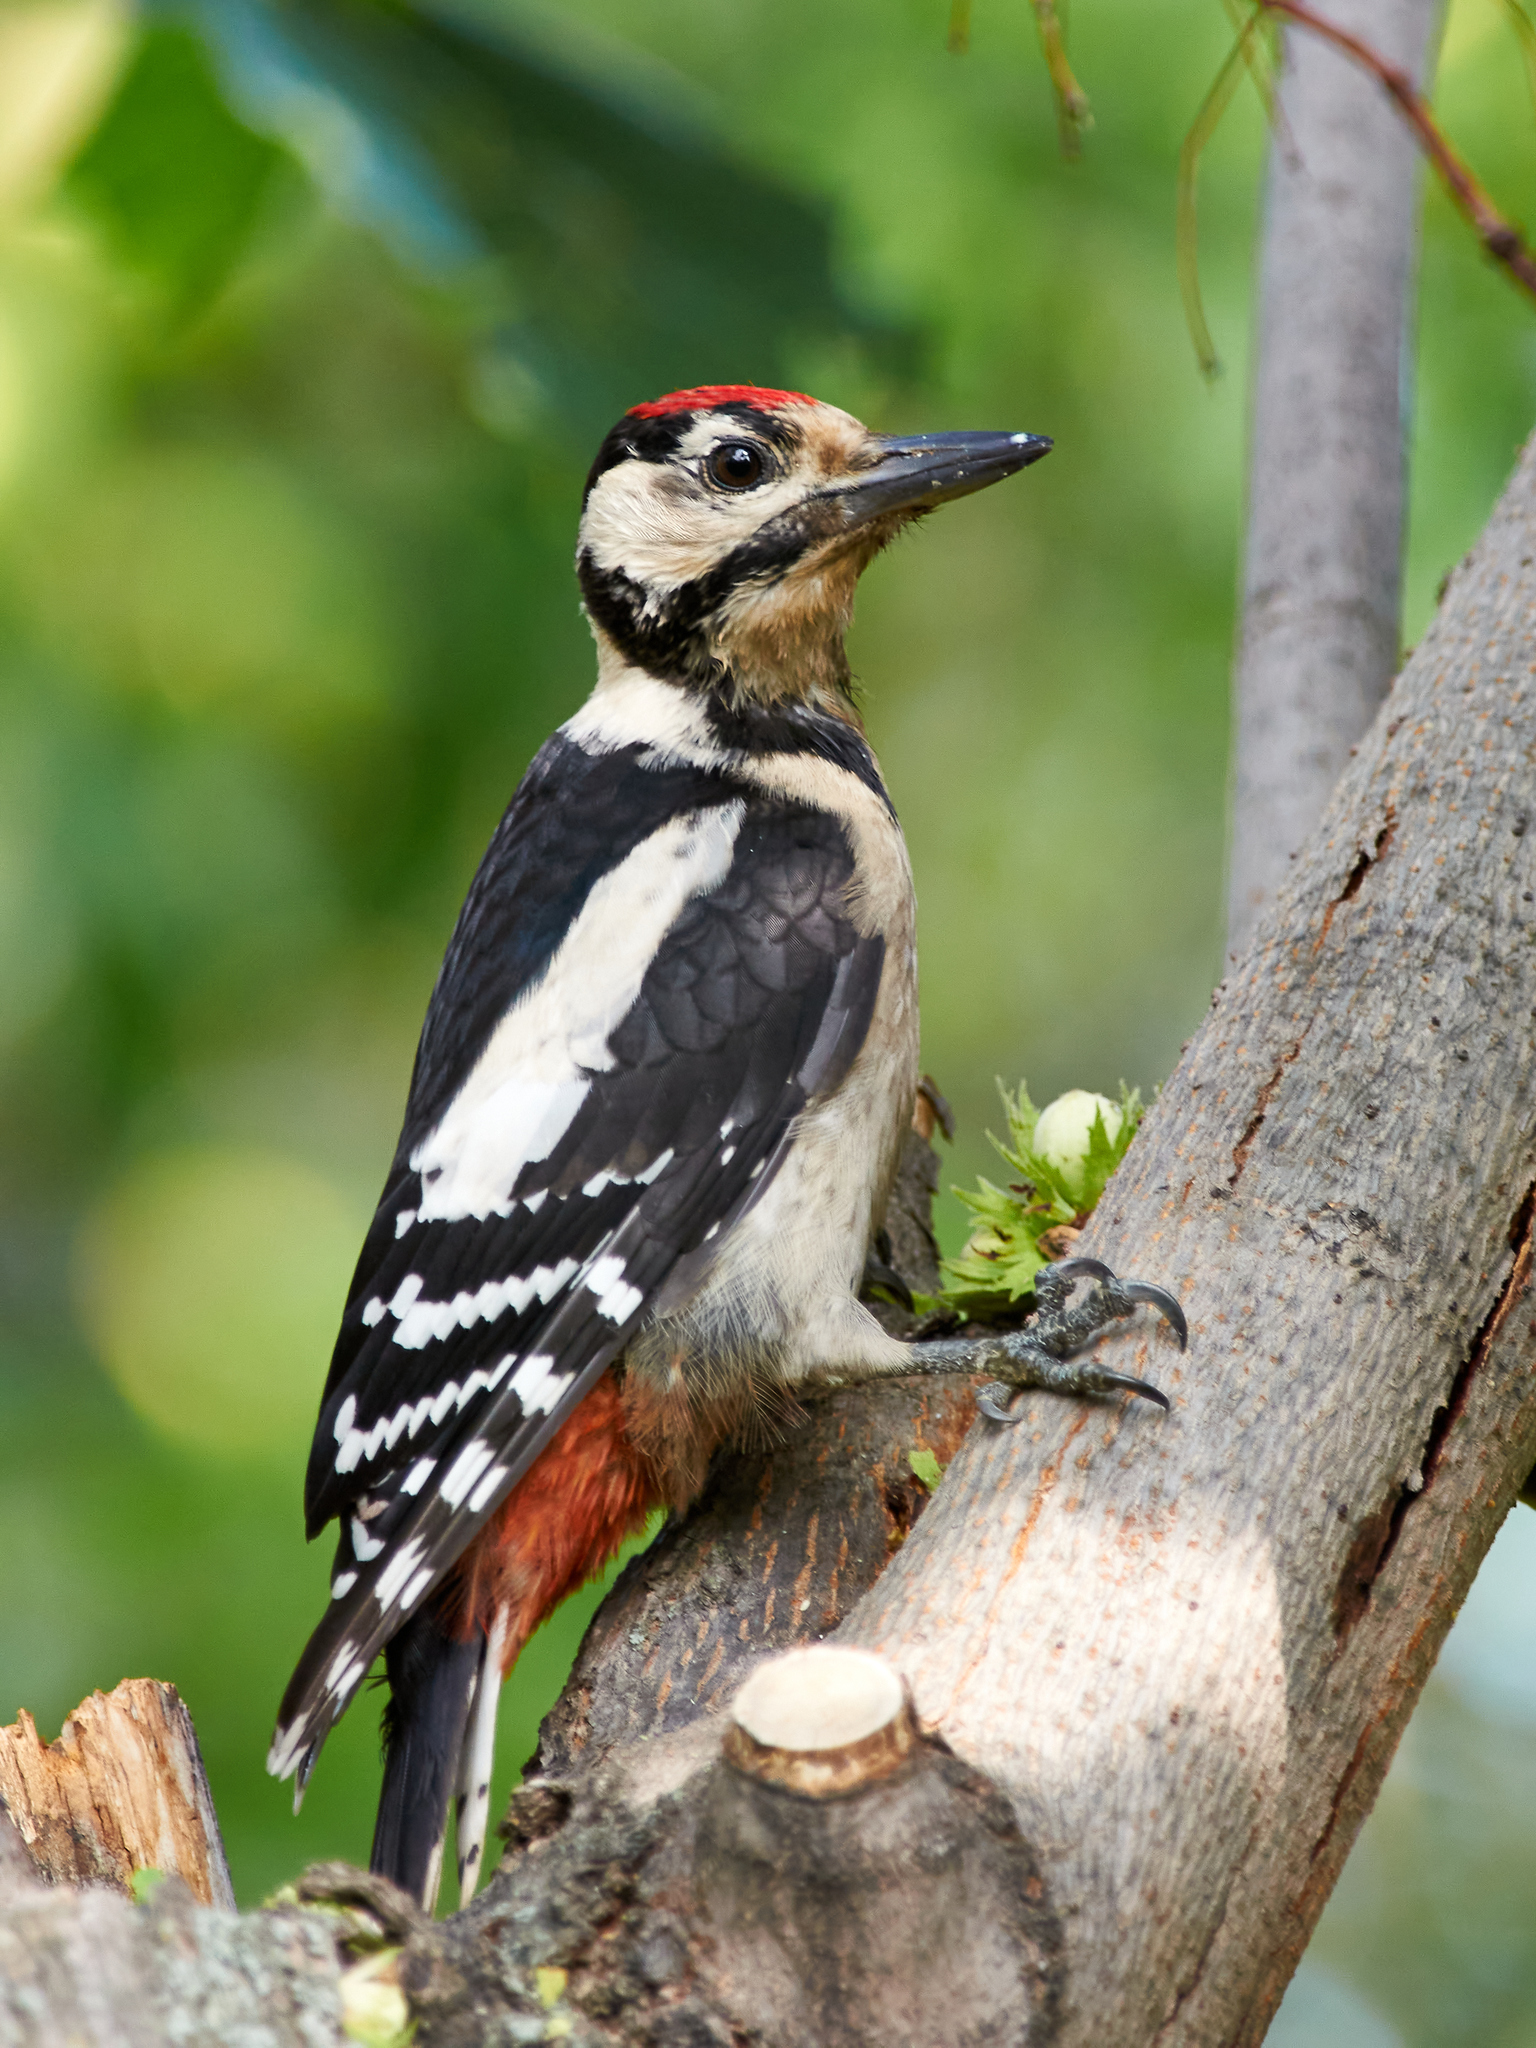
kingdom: Animalia
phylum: Chordata
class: Aves
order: Piciformes
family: Picidae
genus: Dendrocopos
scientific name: Dendrocopos major
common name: Great spotted woodpecker
